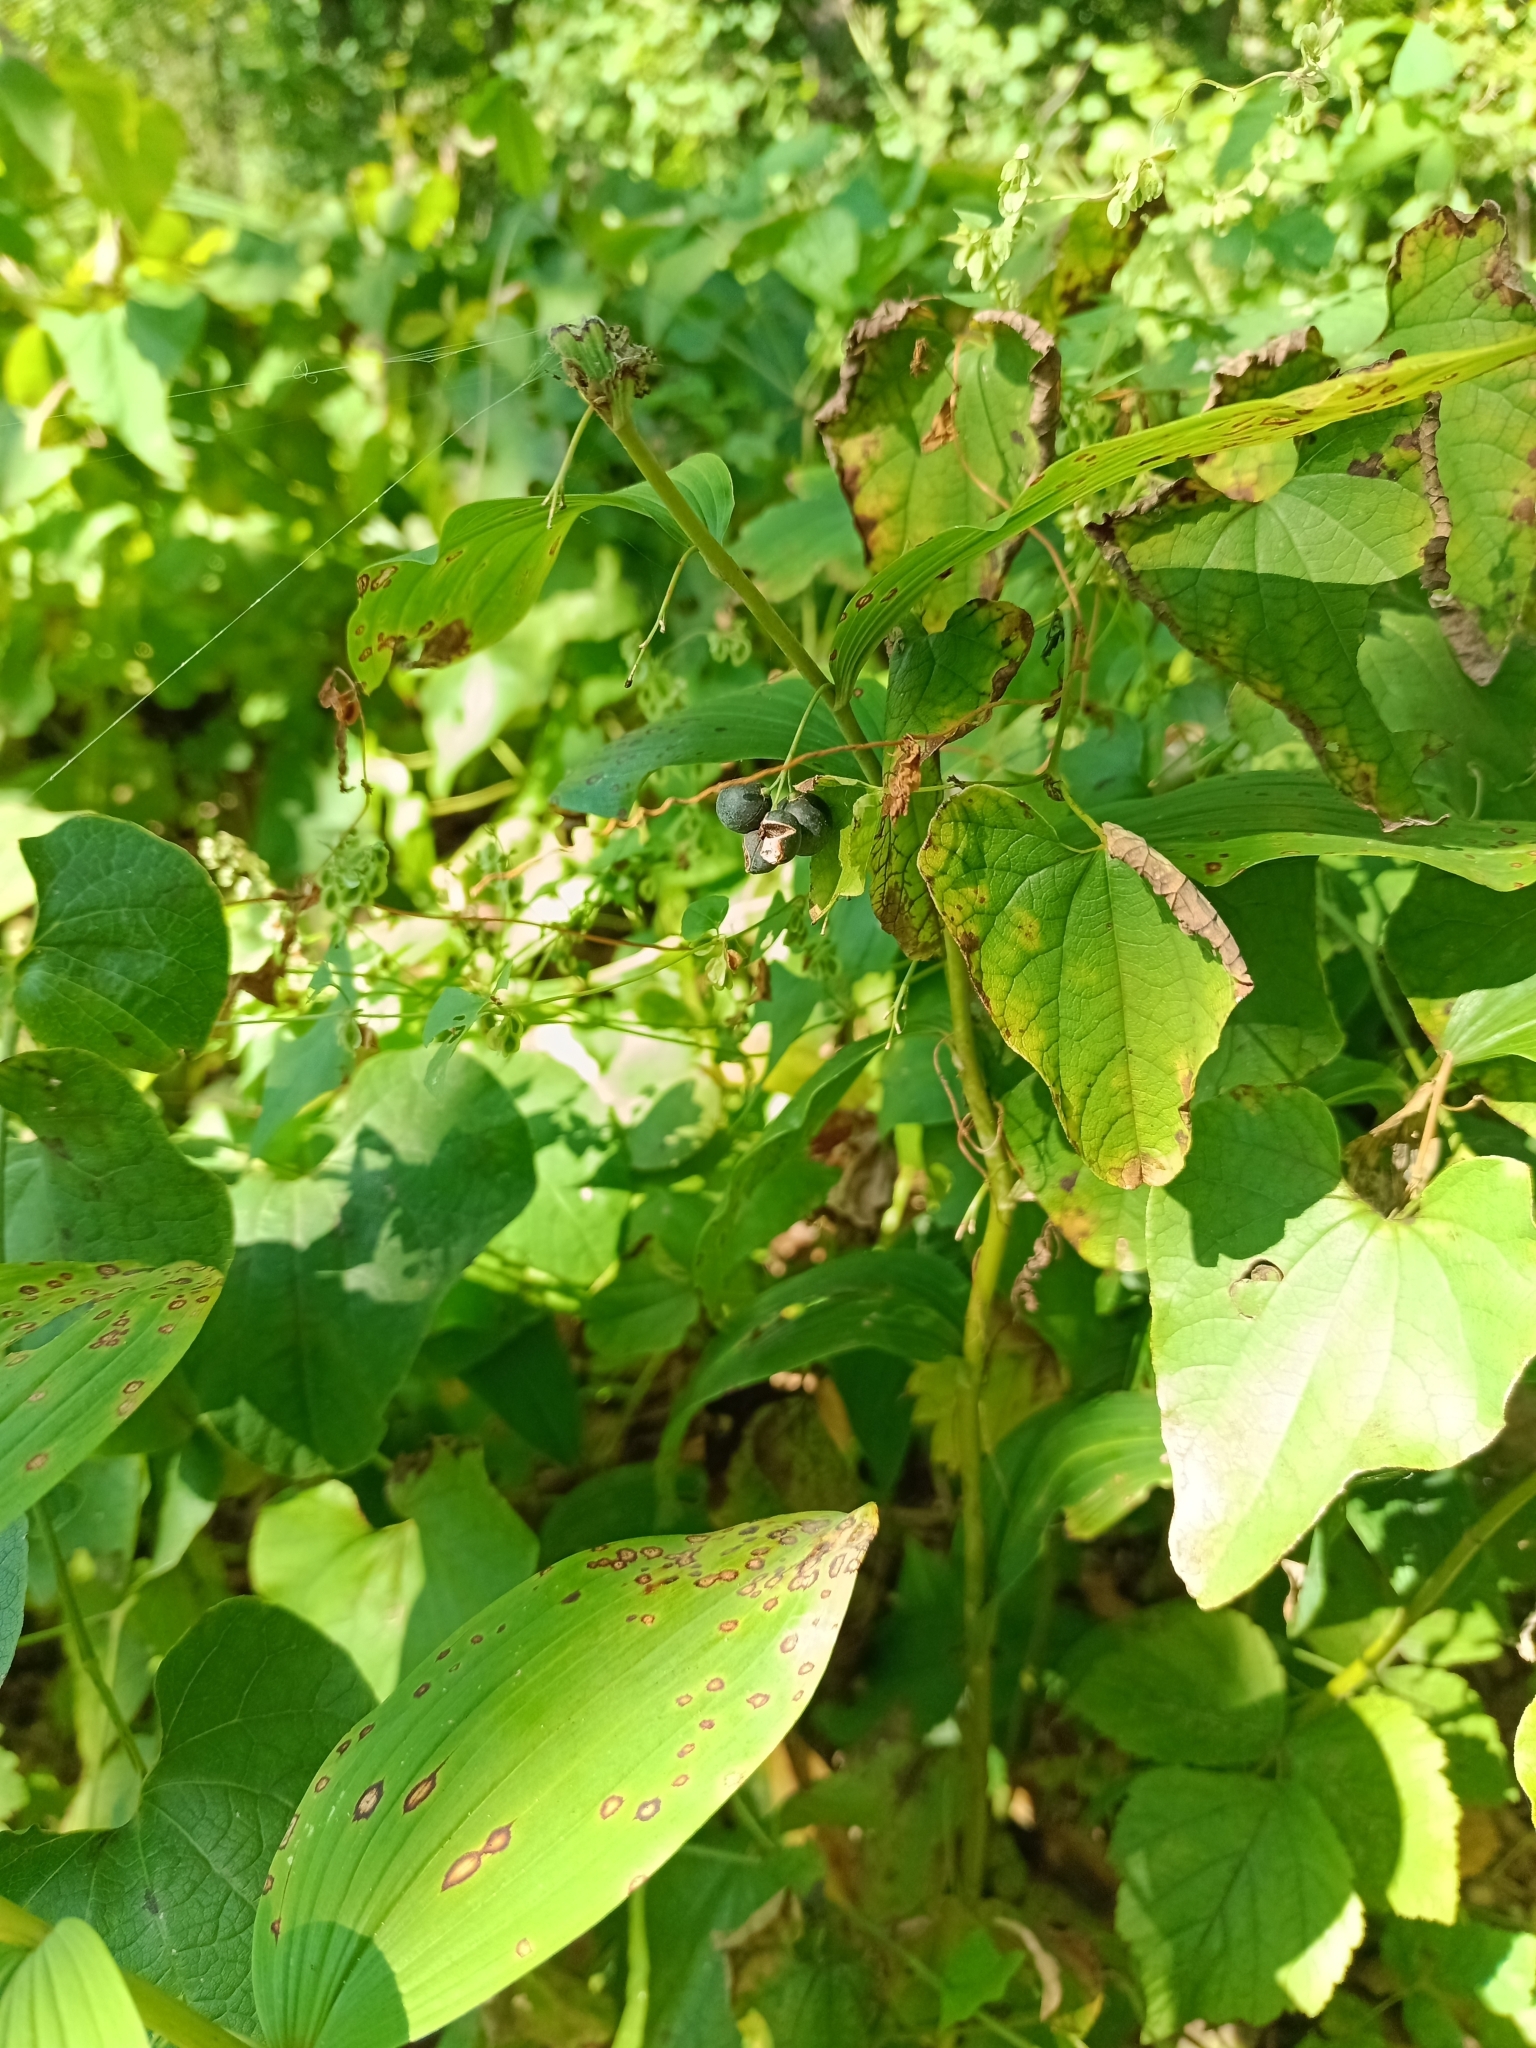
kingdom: Plantae
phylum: Tracheophyta
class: Liliopsida
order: Asparagales
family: Asparagaceae
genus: Polygonatum
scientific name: Polygonatum multiflorum
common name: Solomon's-seal
